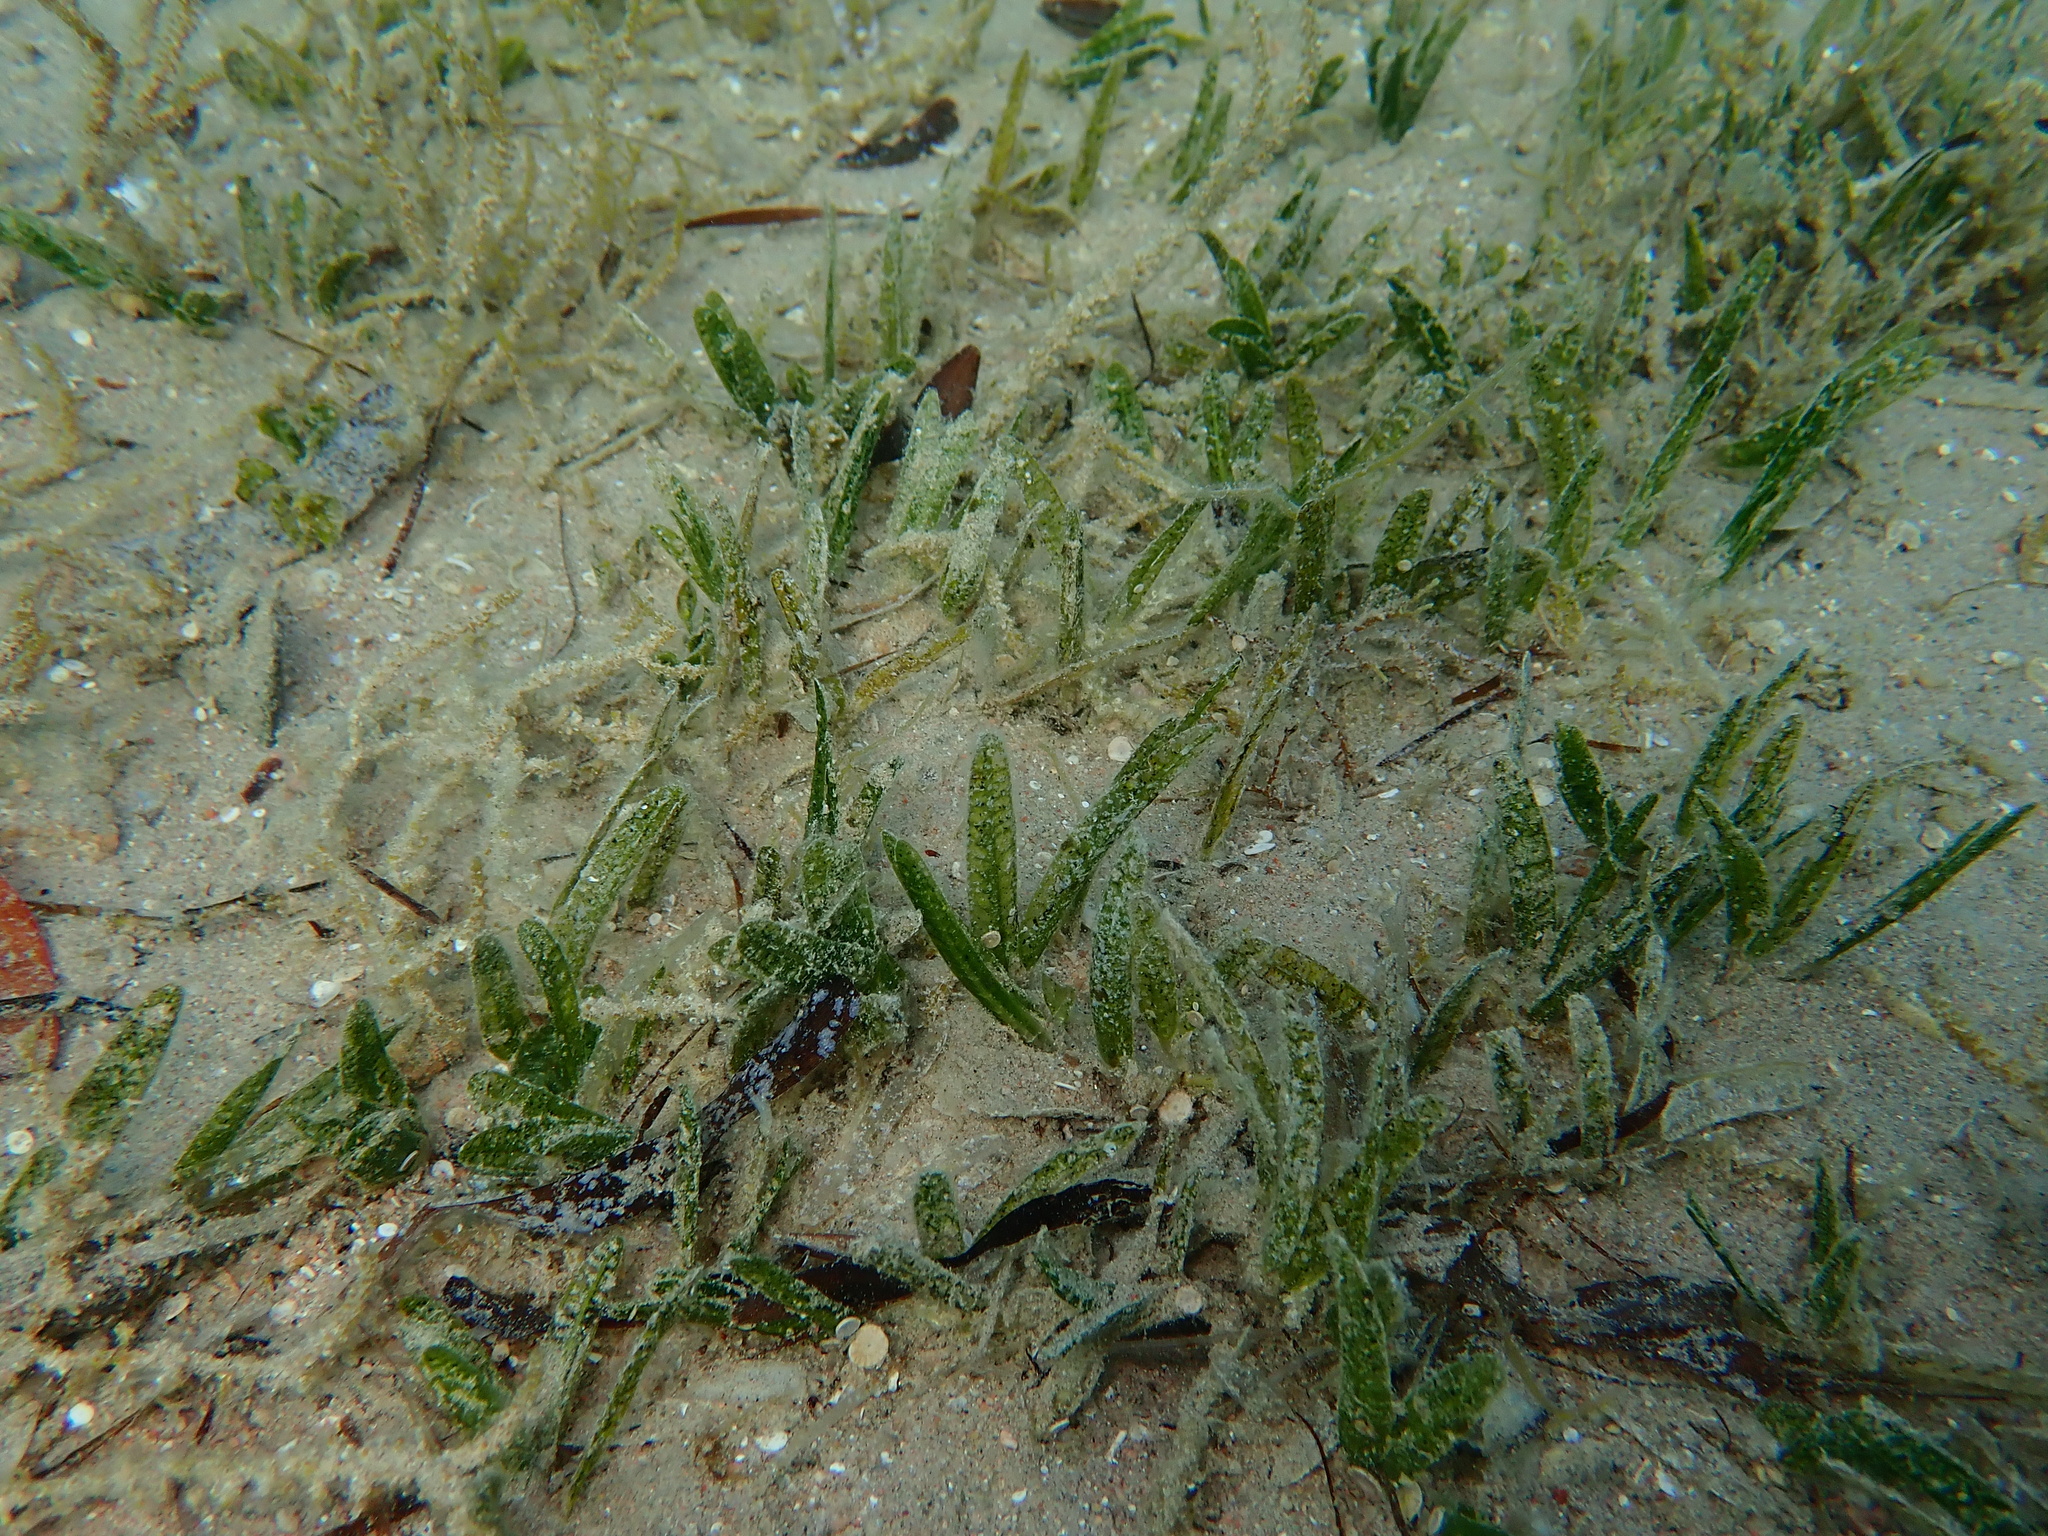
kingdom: Plantae
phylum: Tracheophyta
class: Liliopsida
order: Alismatales
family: Hydrocharitaceae
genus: Halophila
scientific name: Halophila stipulacea
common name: Species code: hs
